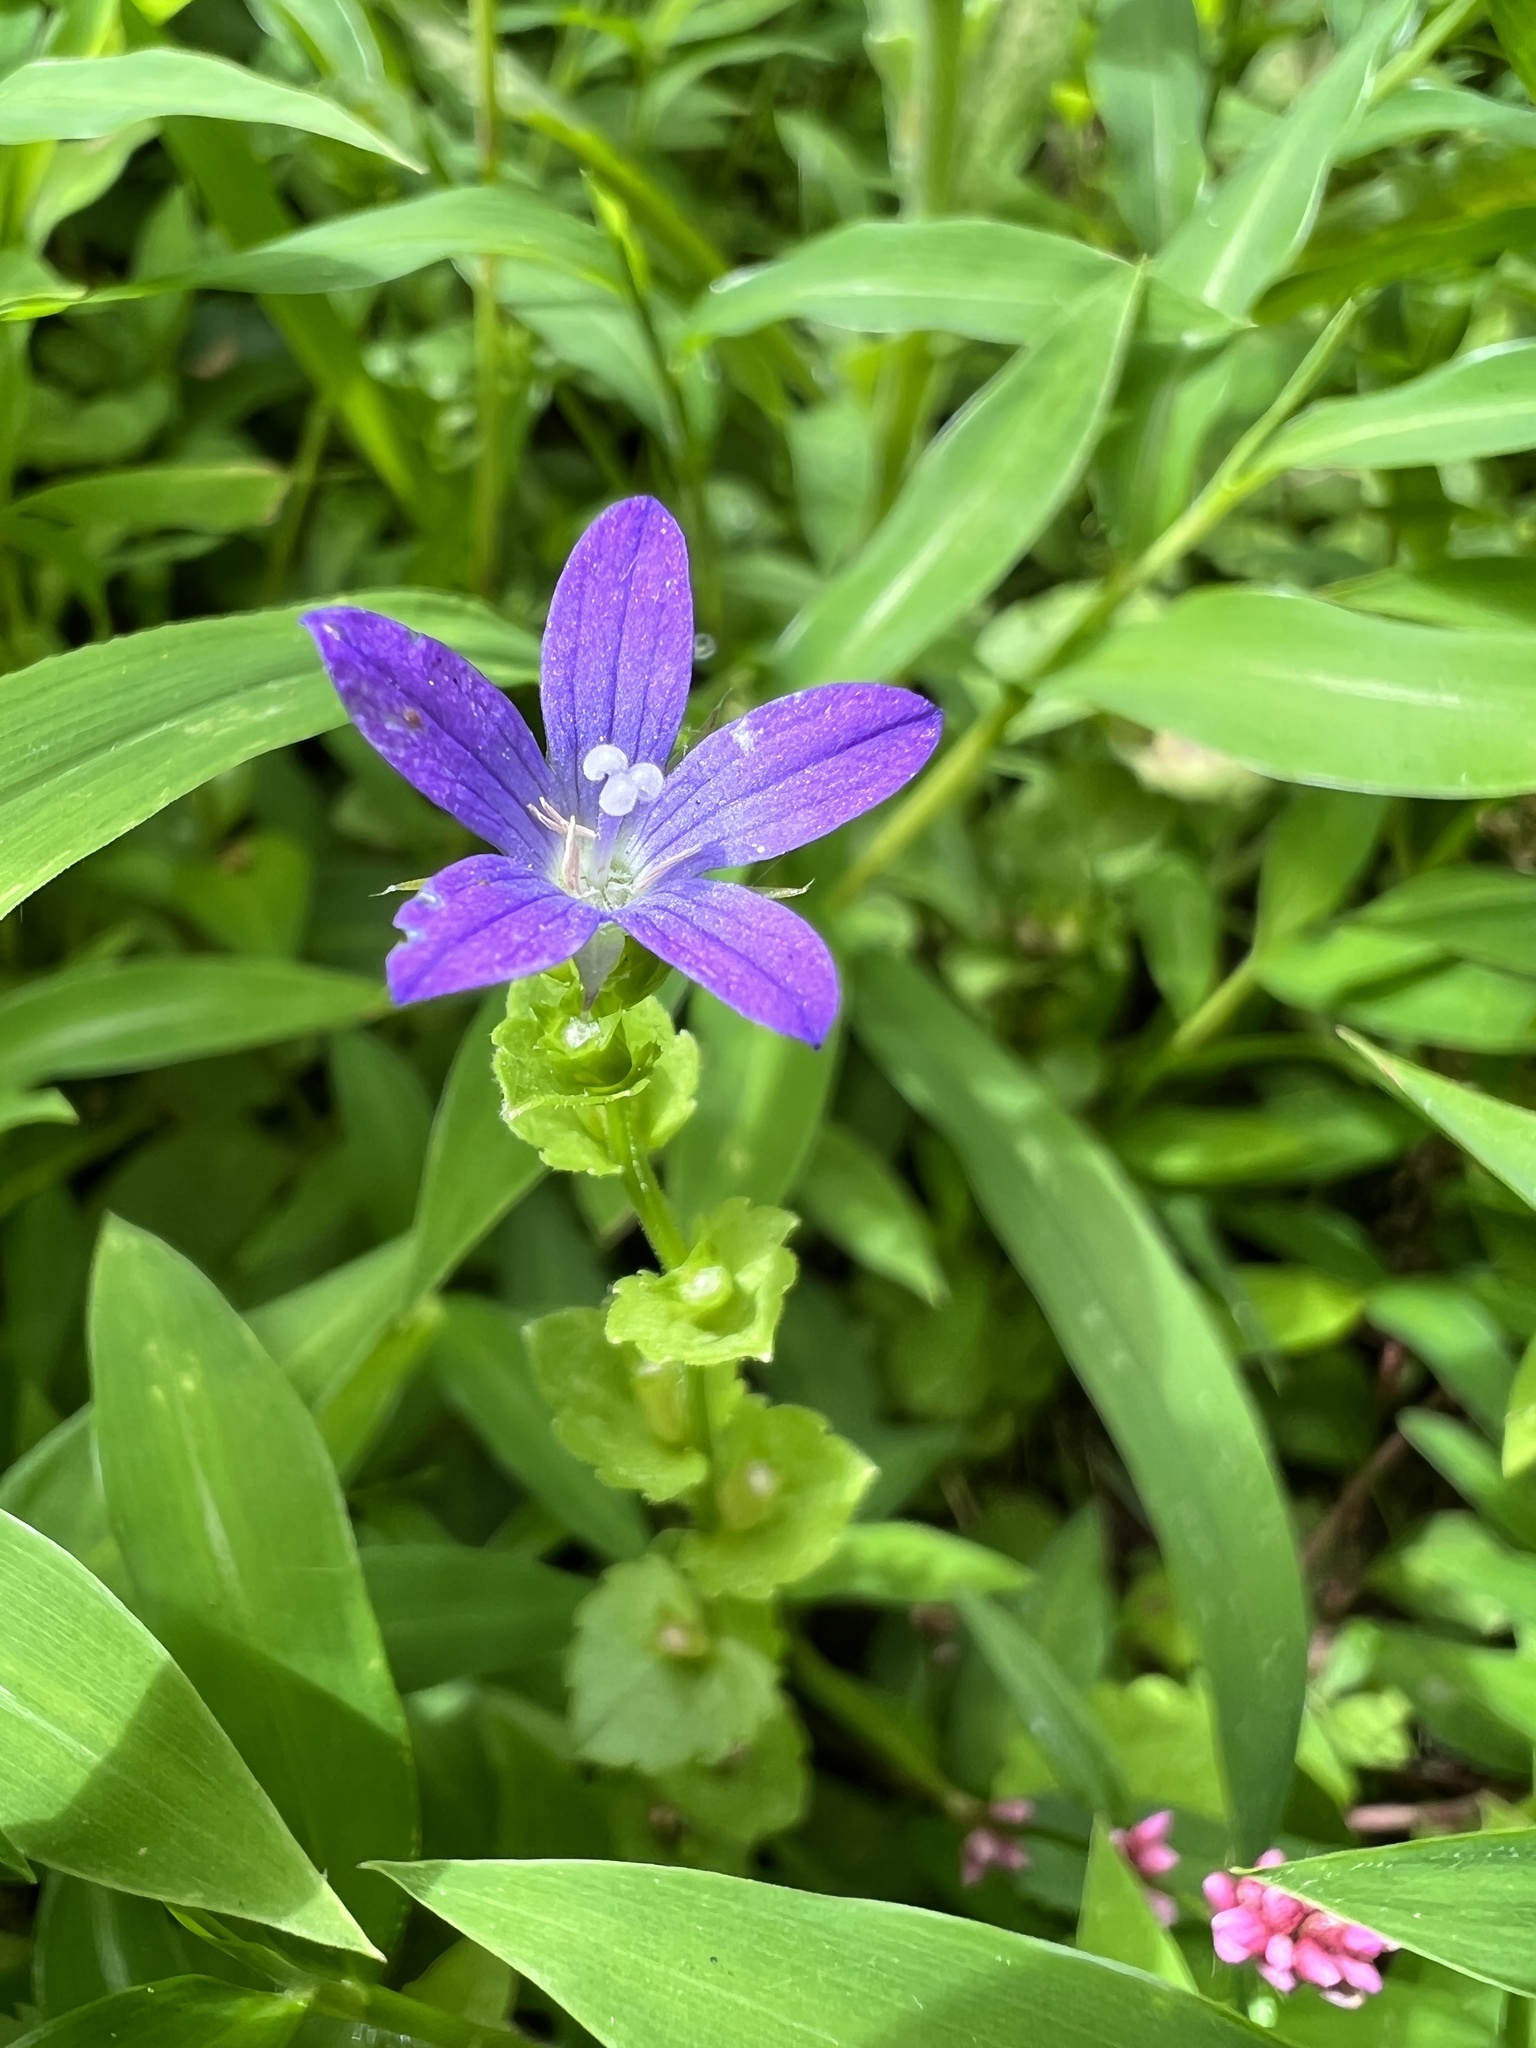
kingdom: Plantae
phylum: Tracheophyta
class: Magnoliopsida
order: Asterales
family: Campanulaceae
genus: Triodanis
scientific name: Triodanis perfoliata
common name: Clasping venus' looking-glass
